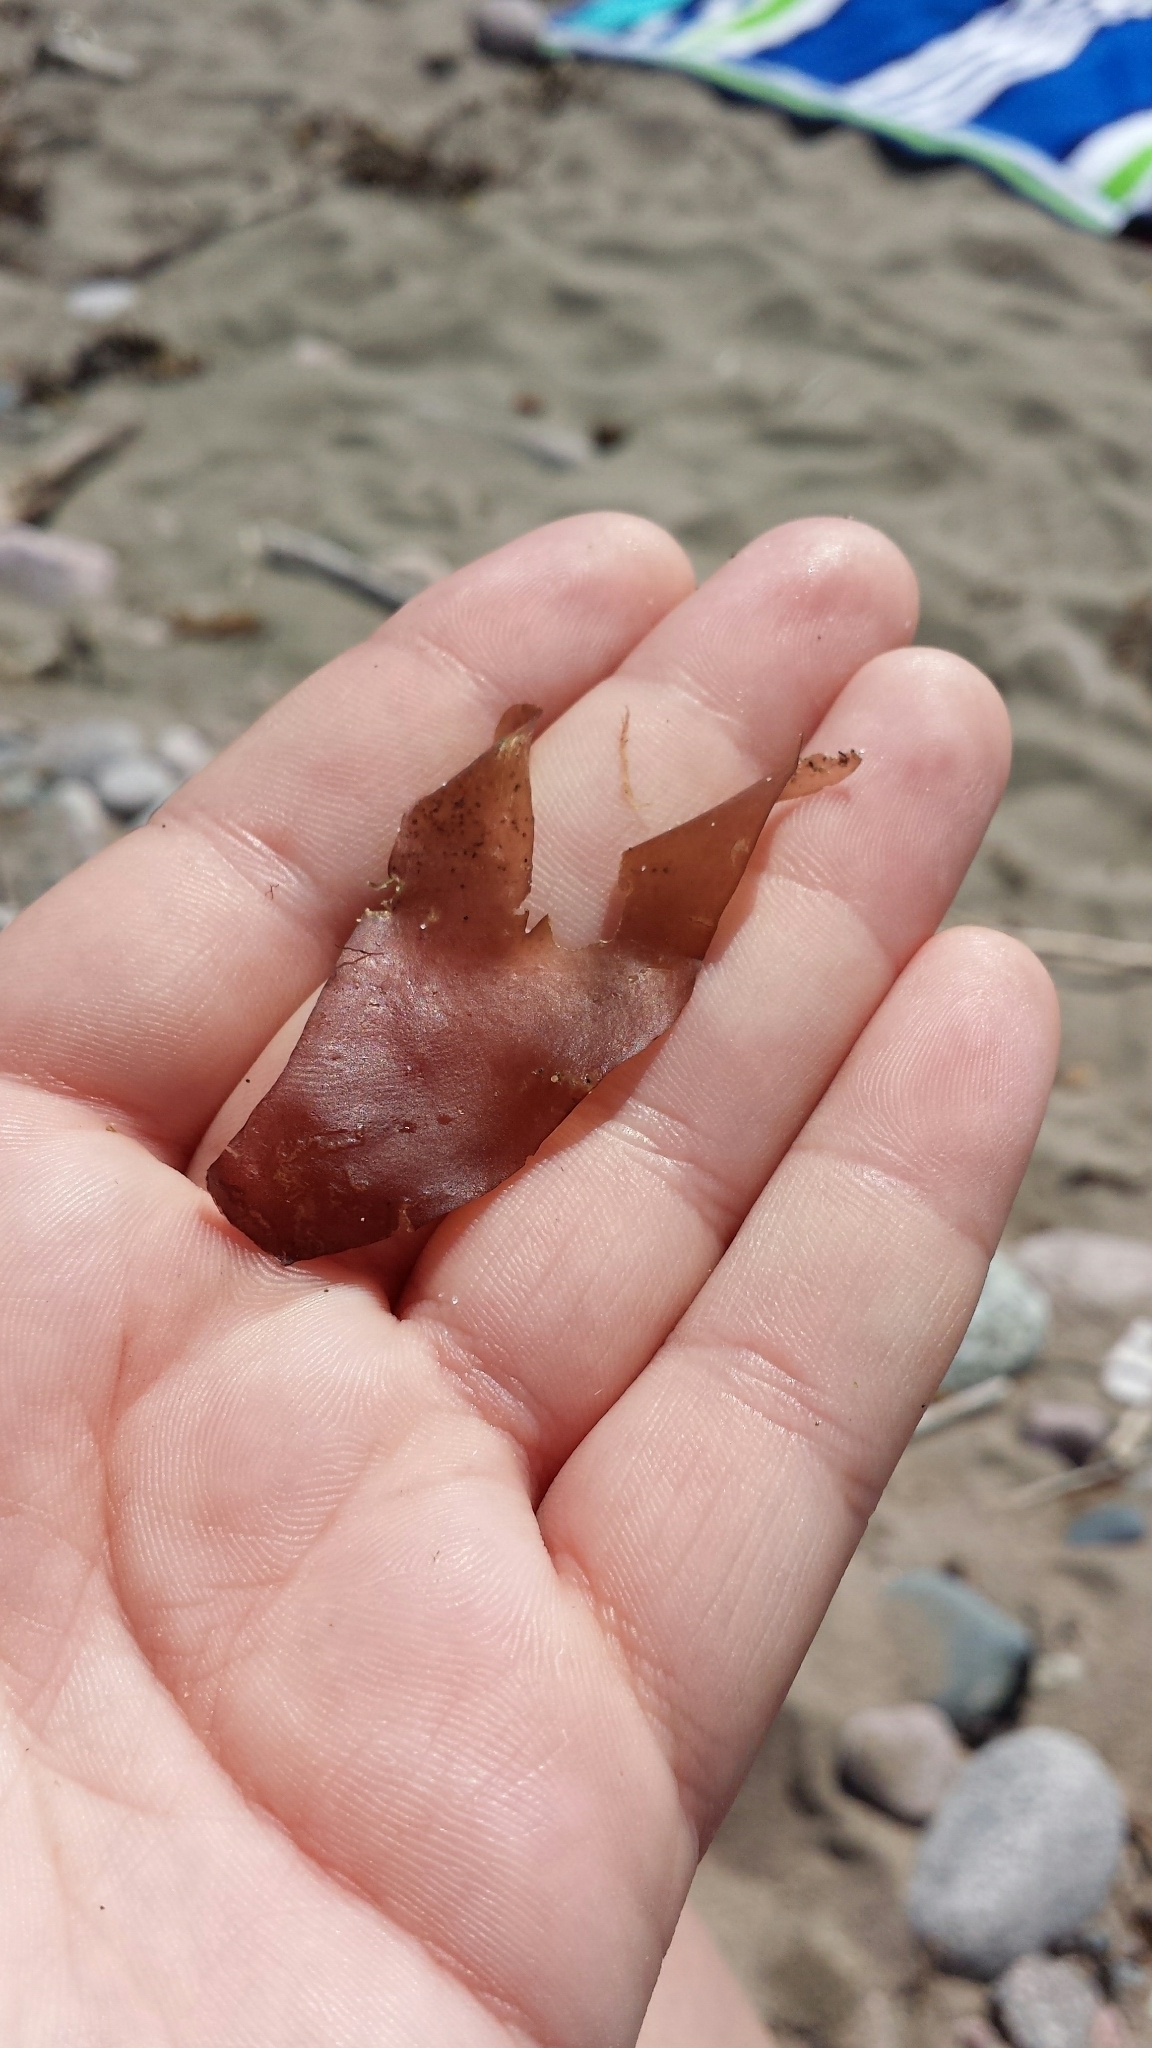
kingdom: Plantae
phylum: Rhodophyta
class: Florideophyceae
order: Palmariales
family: Palmariaceae
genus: Palmaria
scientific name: Palmaria palmata
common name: Dulse
